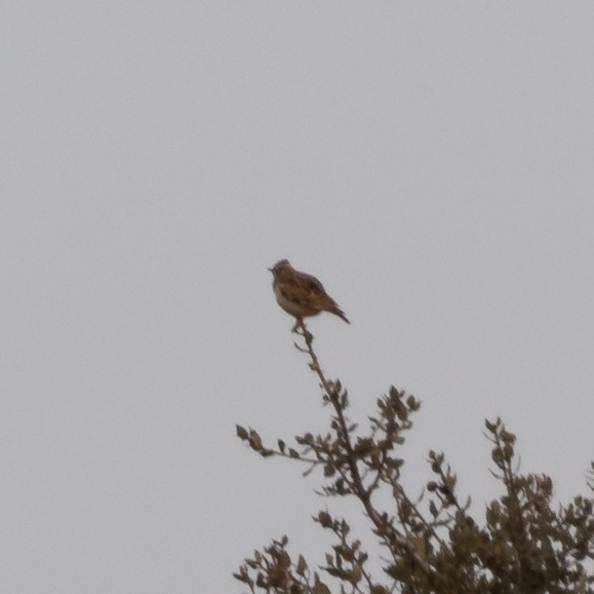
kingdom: Animalia
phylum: Chordata
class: Aves
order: Passeriformes
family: Alaudidae
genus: Lullula
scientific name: Lullula arborea
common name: Woodlark
